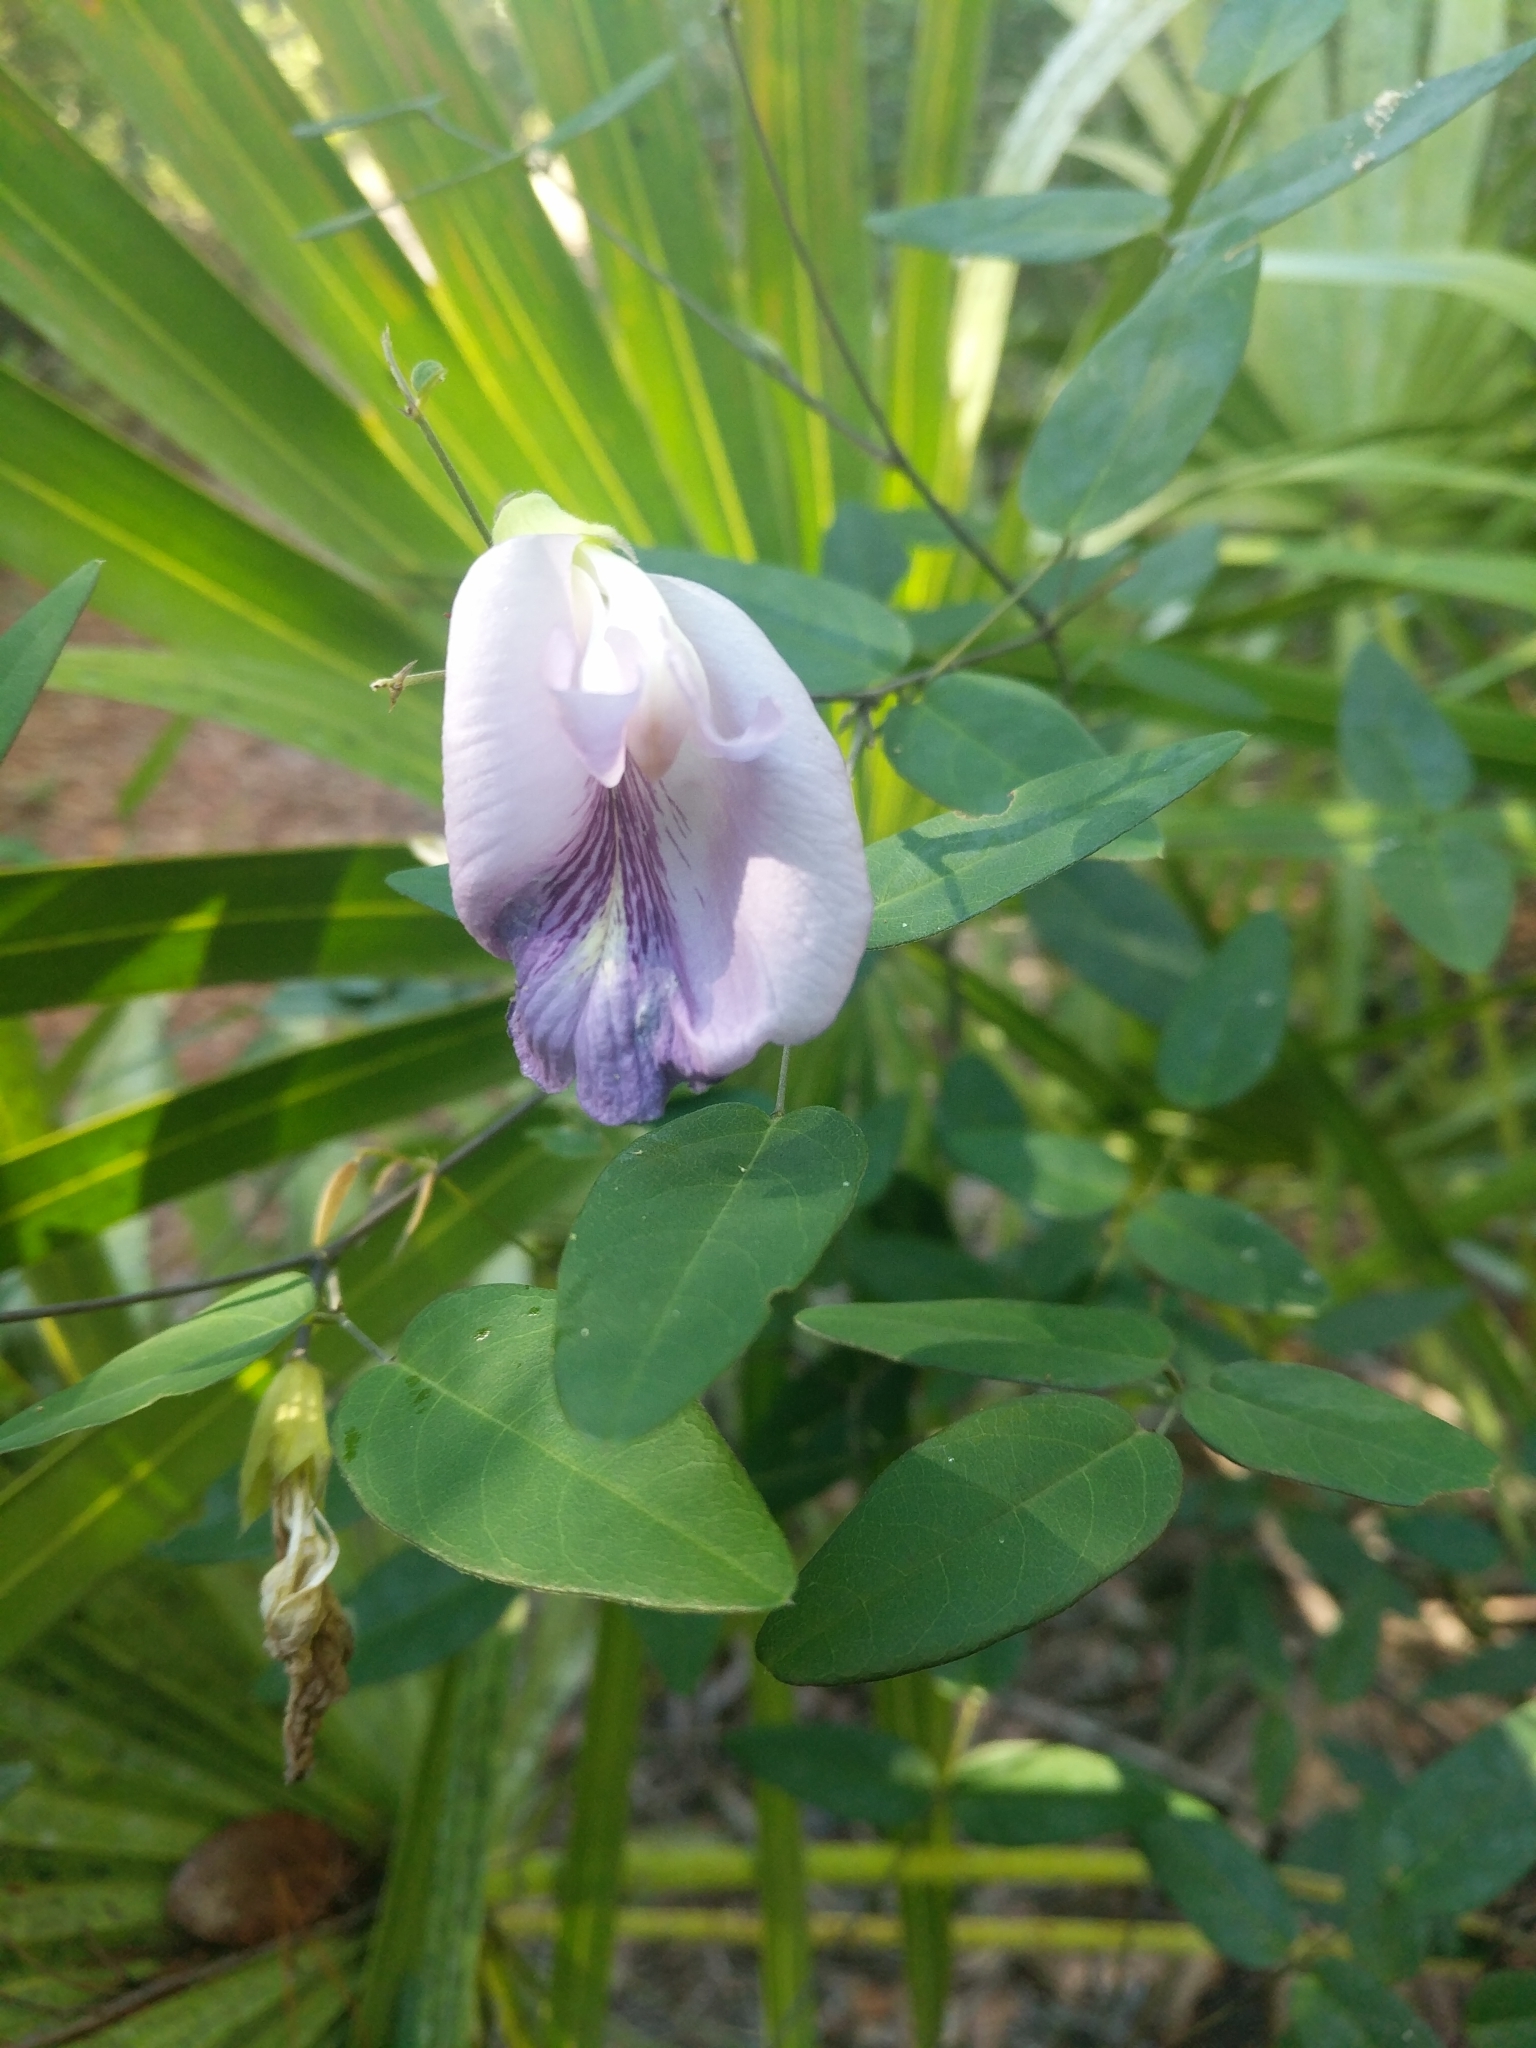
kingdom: Plantae
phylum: Tracheophyta
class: Magnoliopsida
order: Fabales
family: Fabaceae
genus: Clitoria
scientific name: Clitoria mariana
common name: Butterfly-pea
